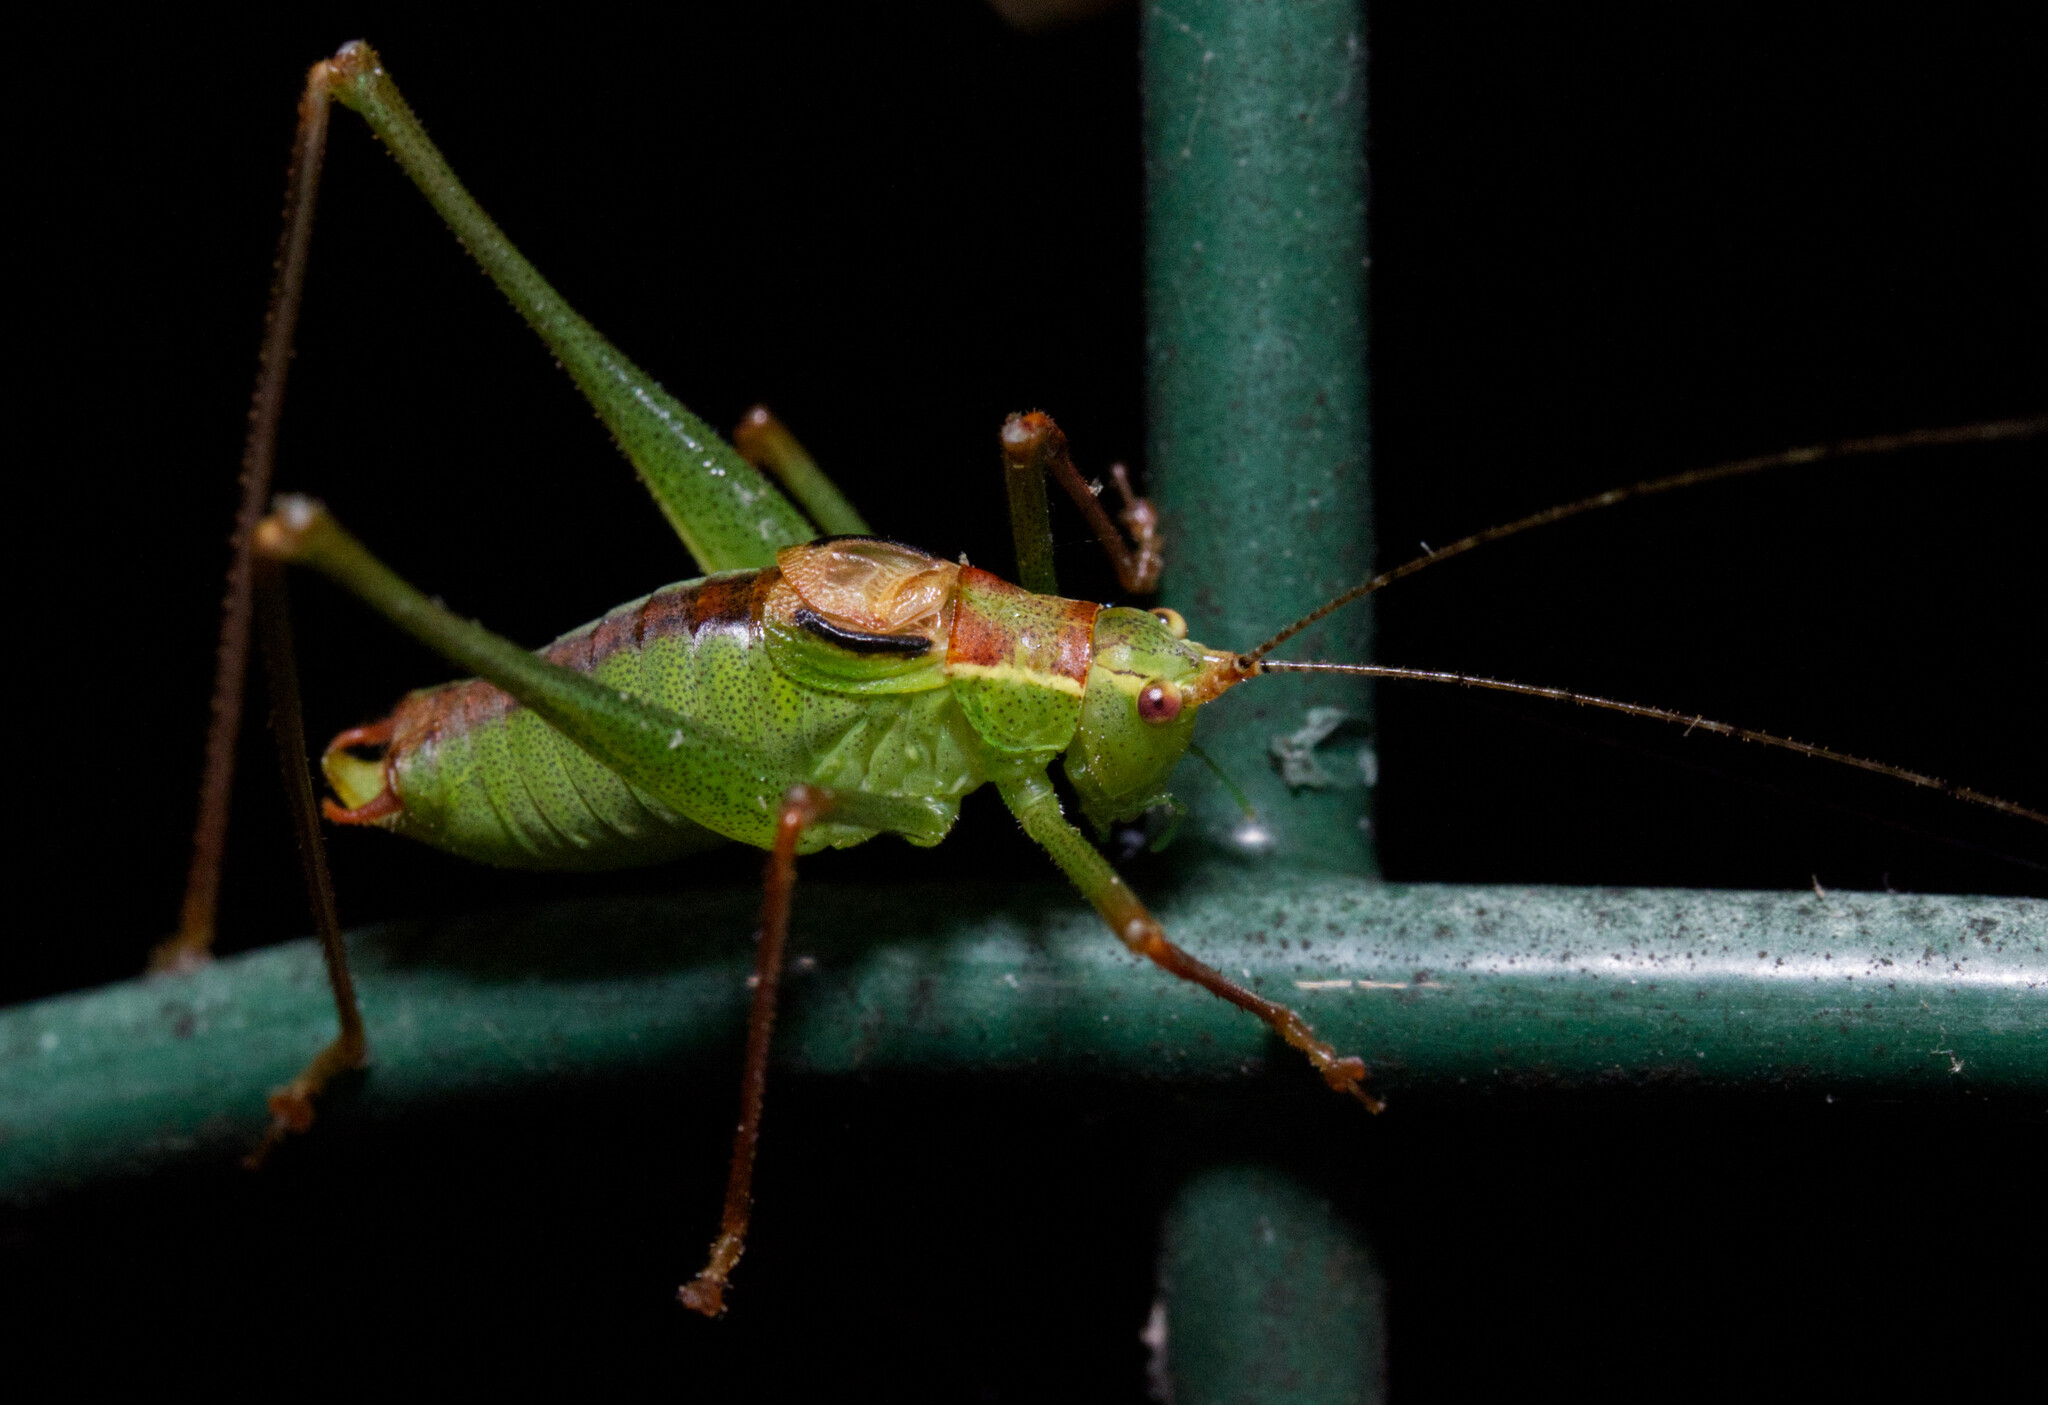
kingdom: Animalia
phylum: Arthropoda
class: Insecta
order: Orthoptera
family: Tettigoniidae
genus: Leptophyes
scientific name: Leptophyes punctatissima
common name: Speckled bush-cricket
